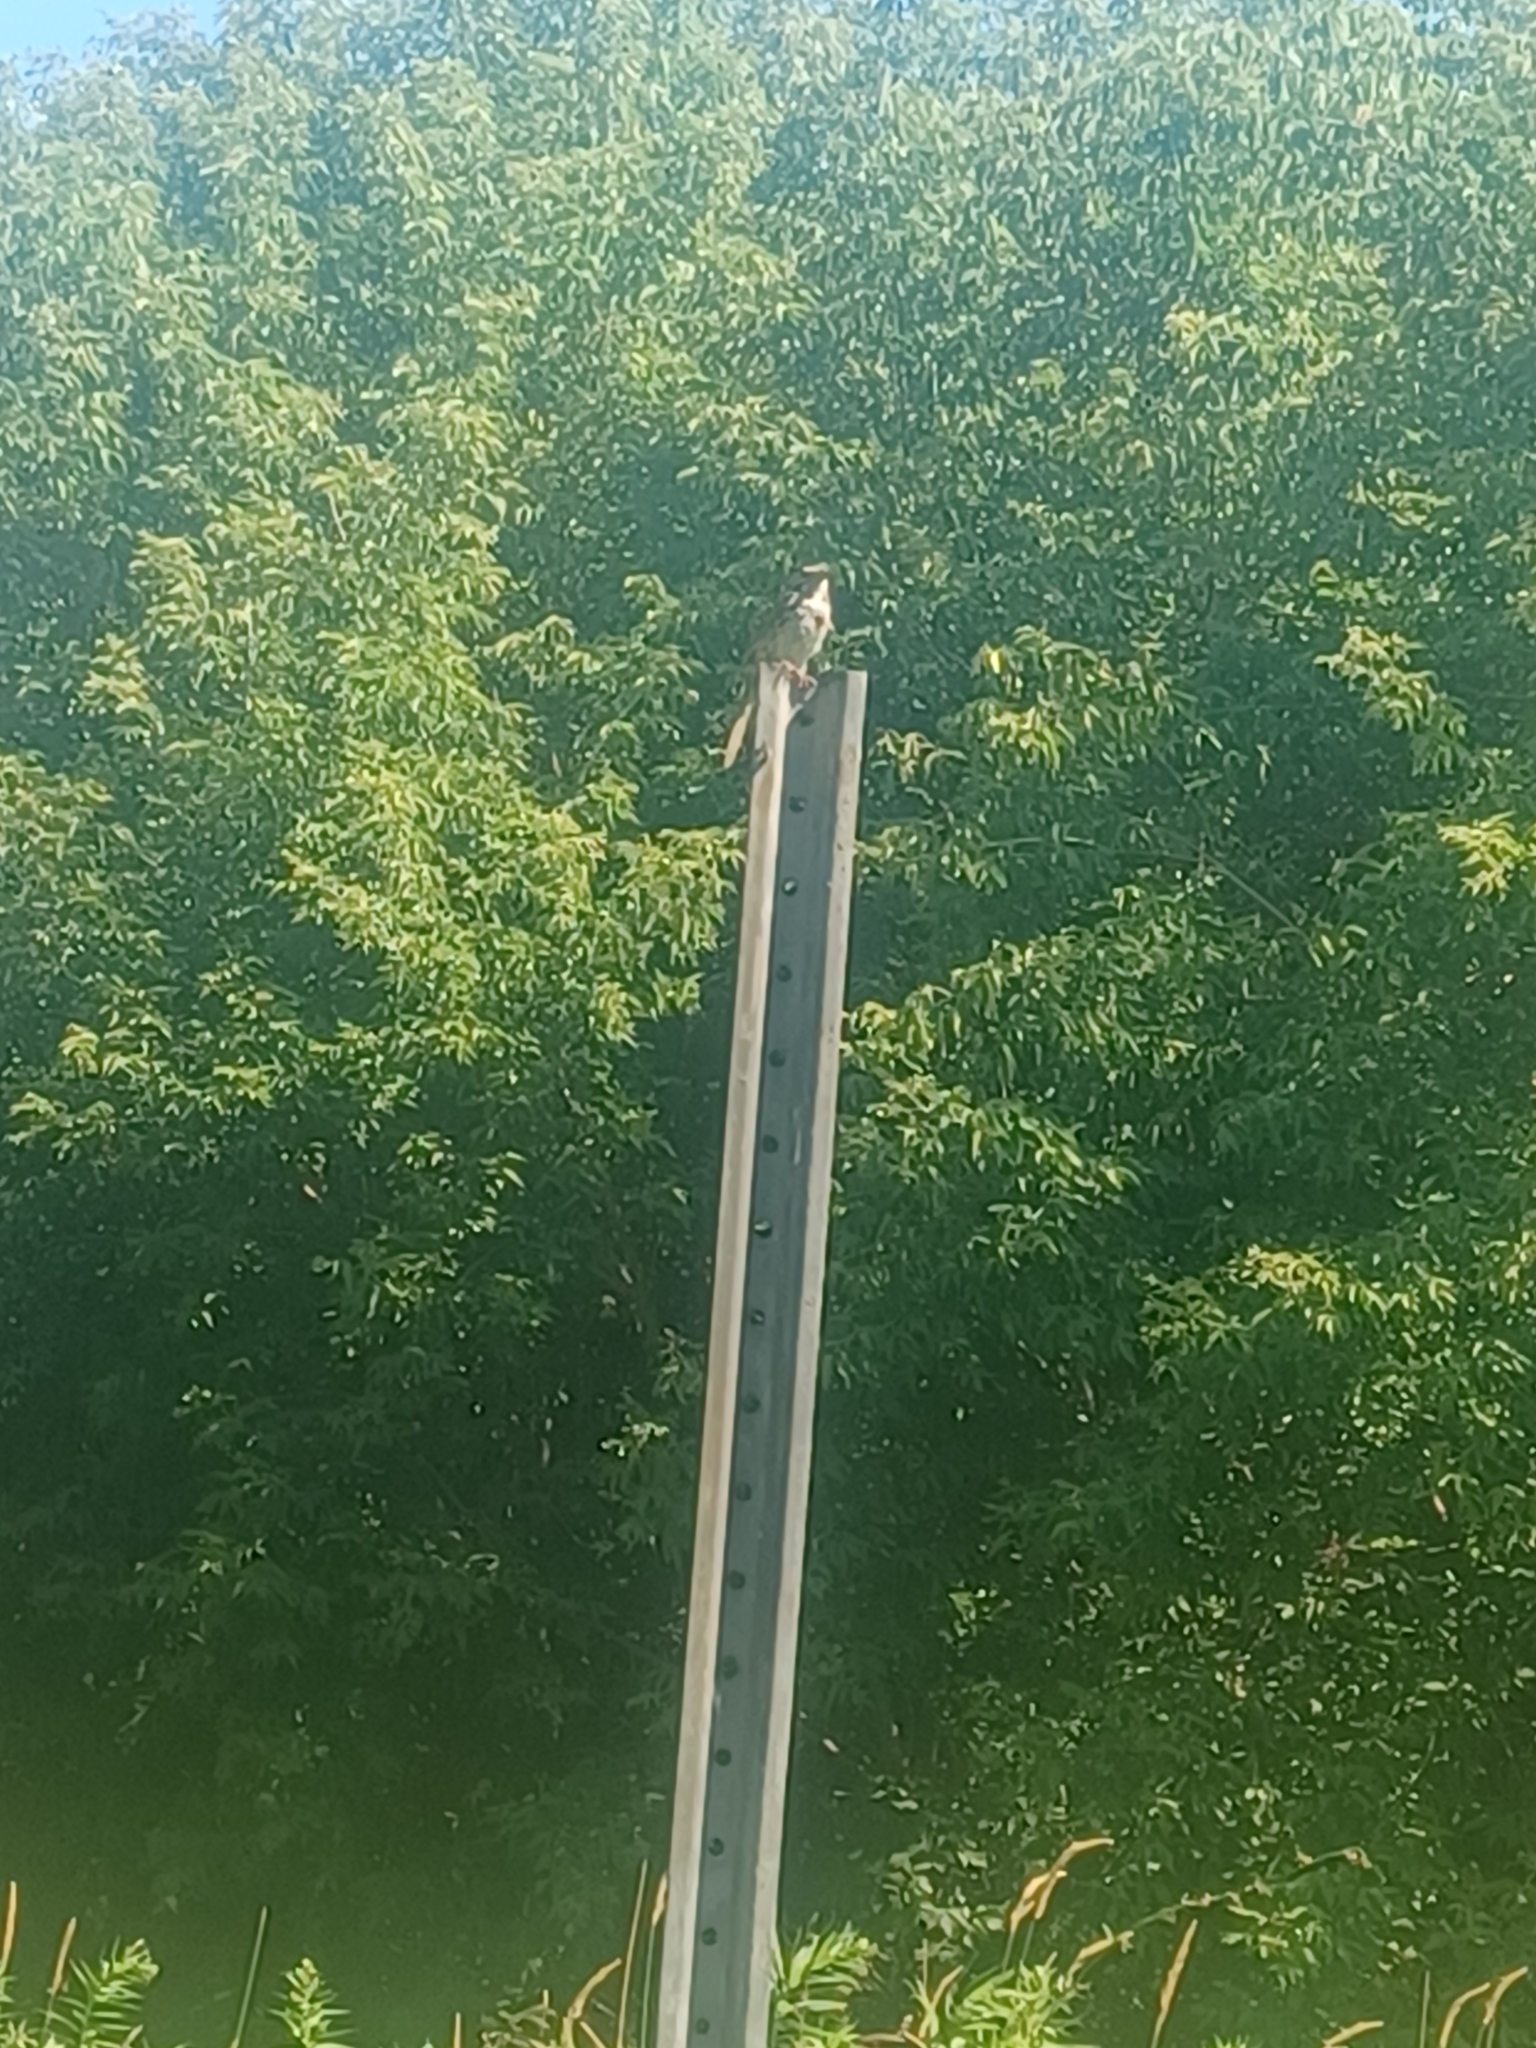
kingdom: Animalia
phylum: Chordata
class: Aves
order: Passeriformes
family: Passerellidae
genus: Melospiza
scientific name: Melospiza melodia
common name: Song sparrow
